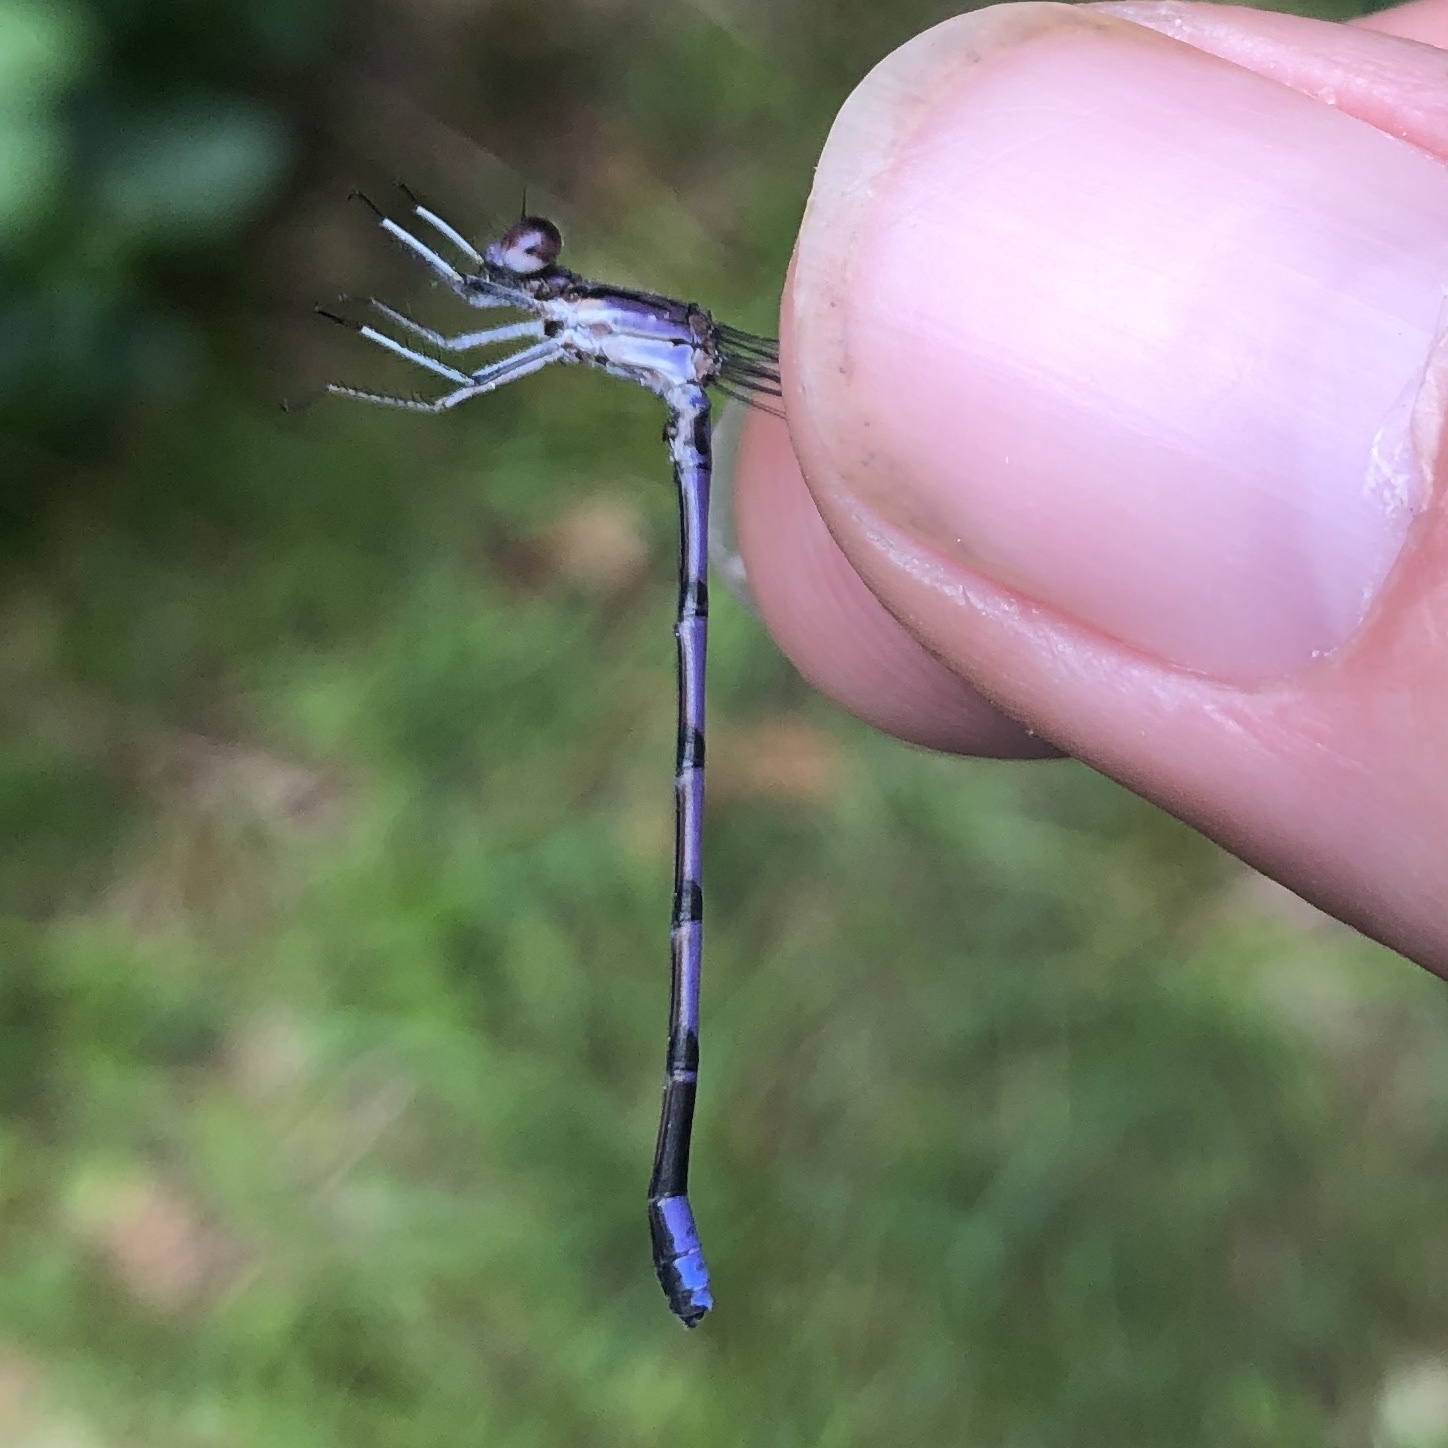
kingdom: Animalia
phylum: Arthropoda
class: Insecta
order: Odonata
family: Coenagrionidae
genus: Argia
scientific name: Argia fumipennis
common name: Variable dancer
